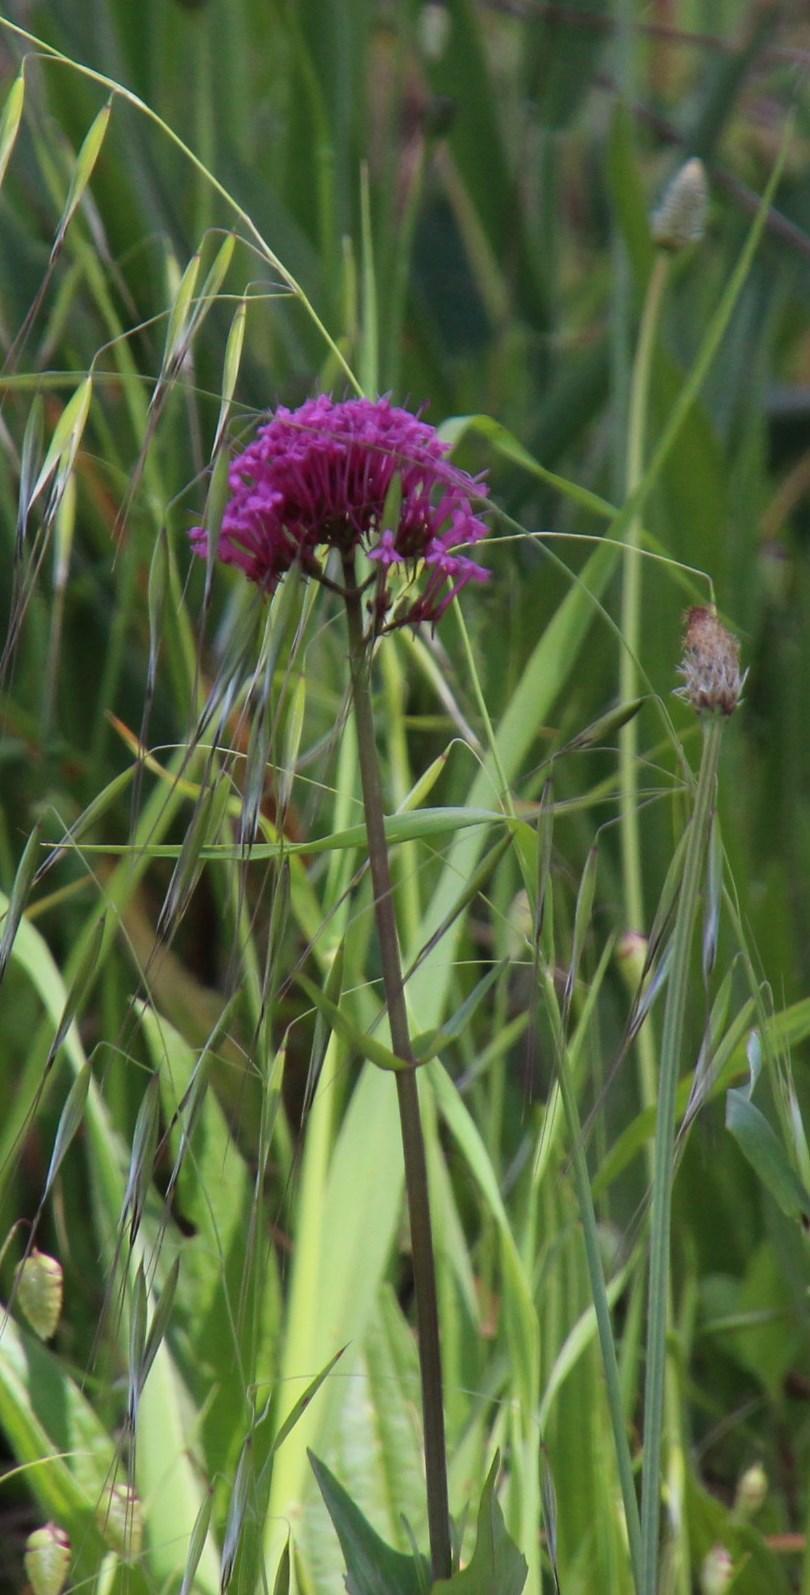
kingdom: Plantae
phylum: Tracheophyta
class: Magnoliopsida
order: Dipsacales
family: Caprifoliaceae
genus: Centranthus
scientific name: Centranthus ruber
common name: Red valerian
